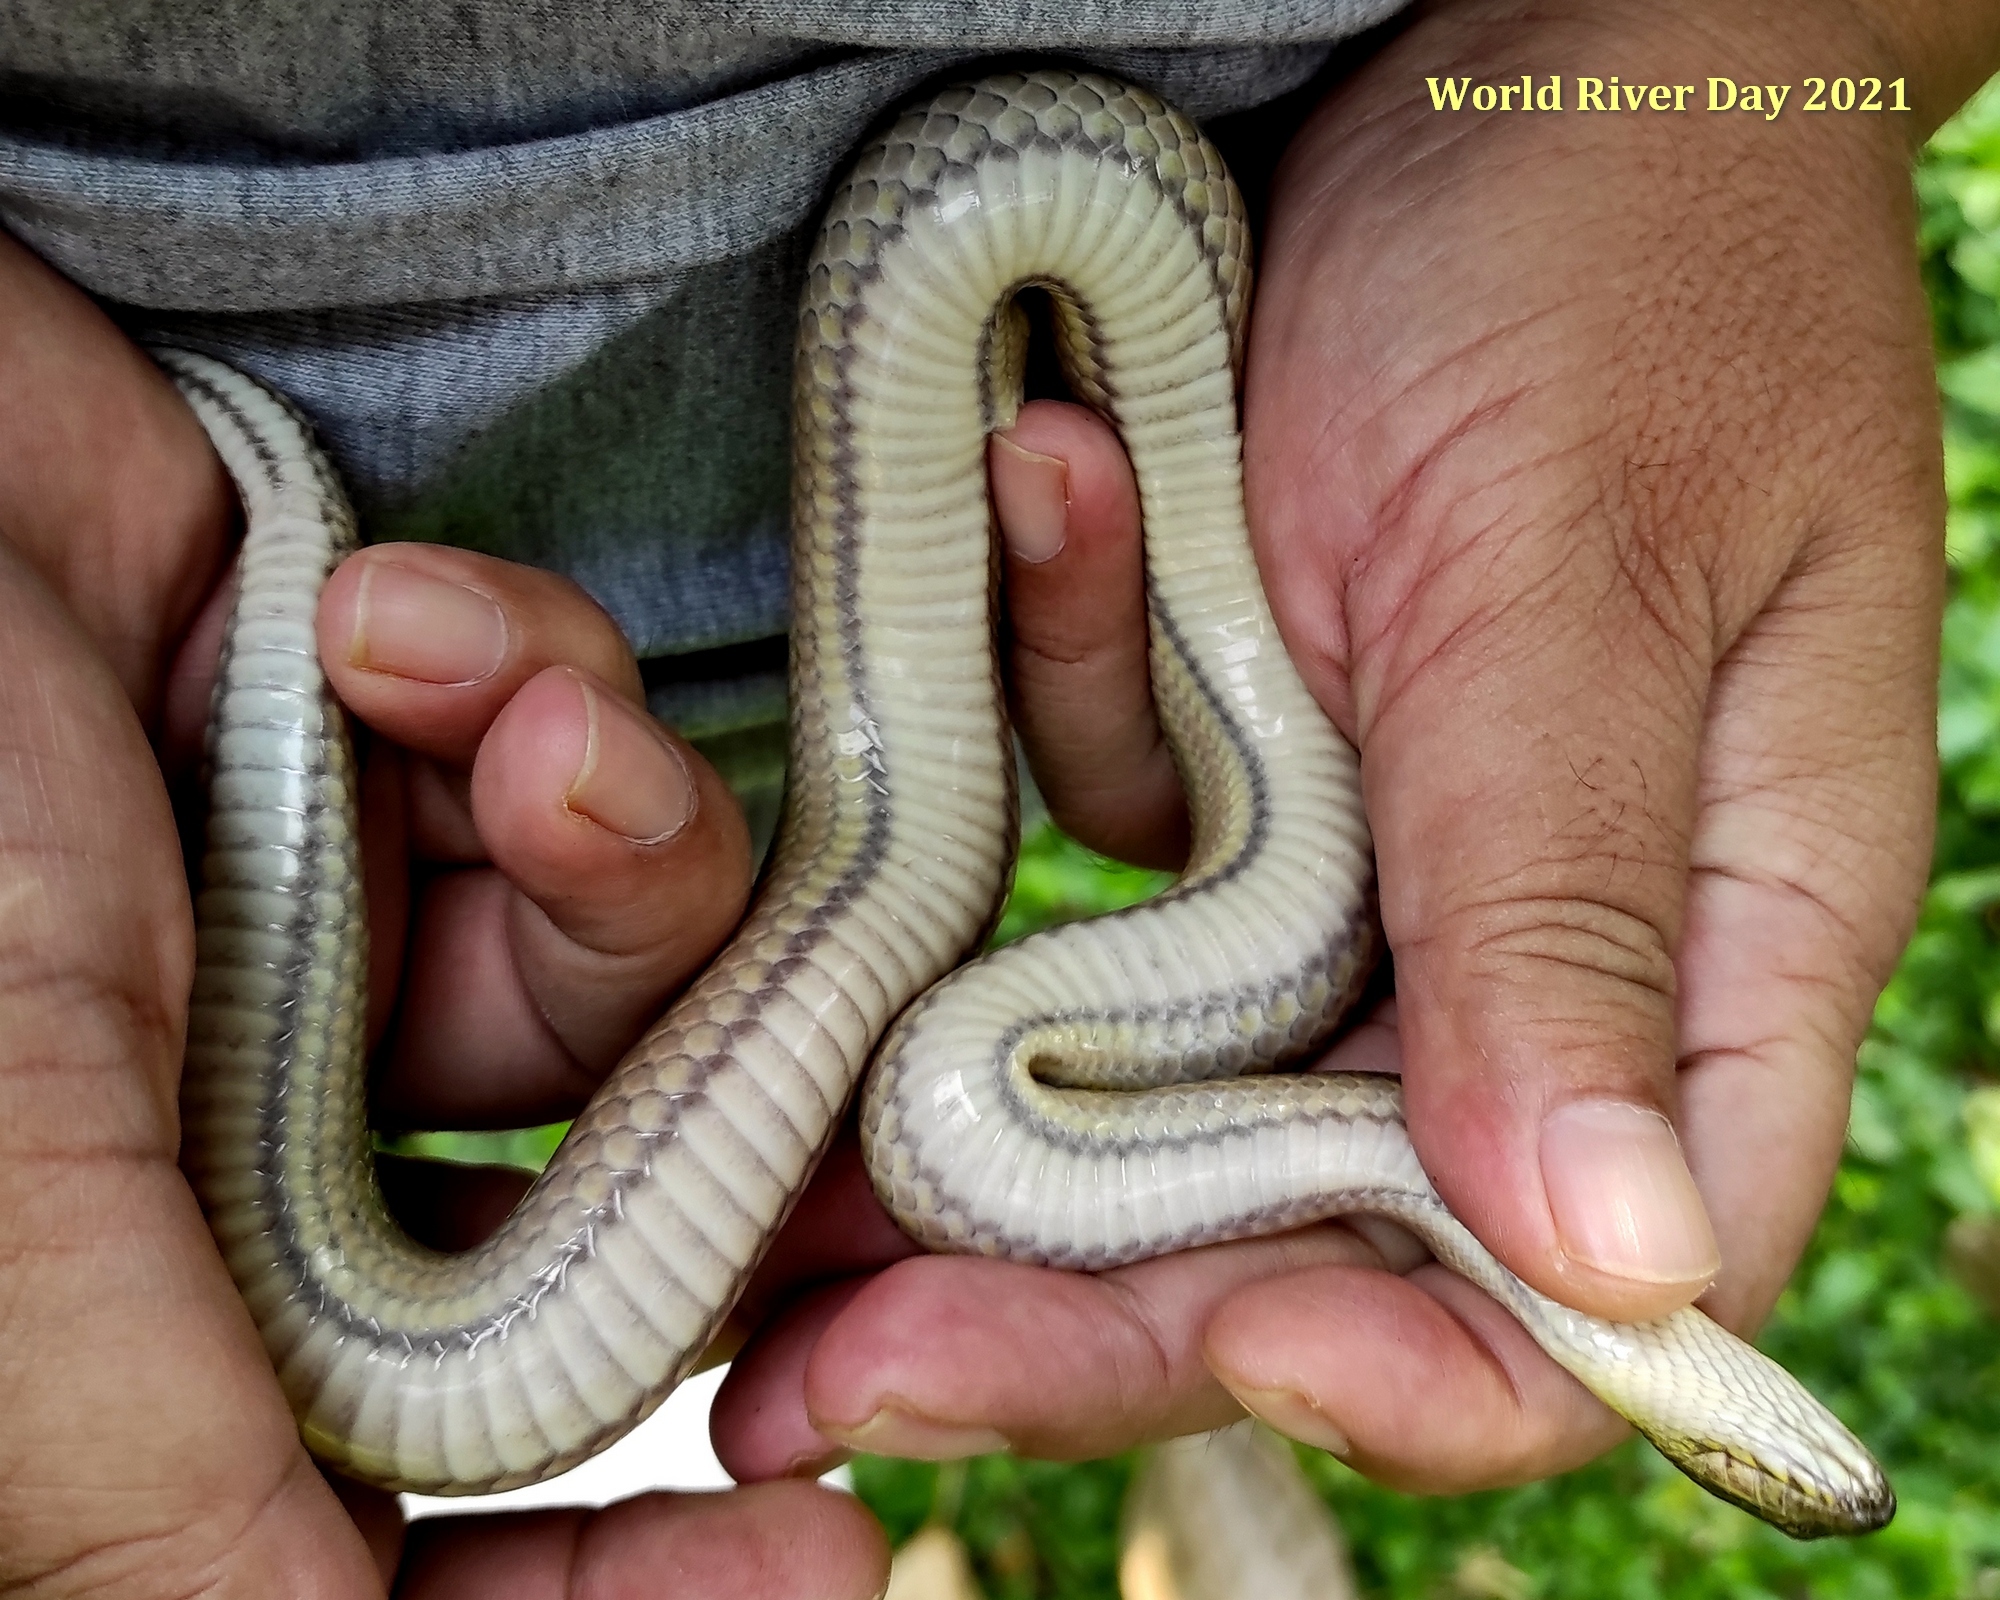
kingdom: Animalia
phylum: Chordata
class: Squamata
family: Homalopsidae
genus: Enhydris
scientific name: Enhydris enhydris
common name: Rainbow water snake
